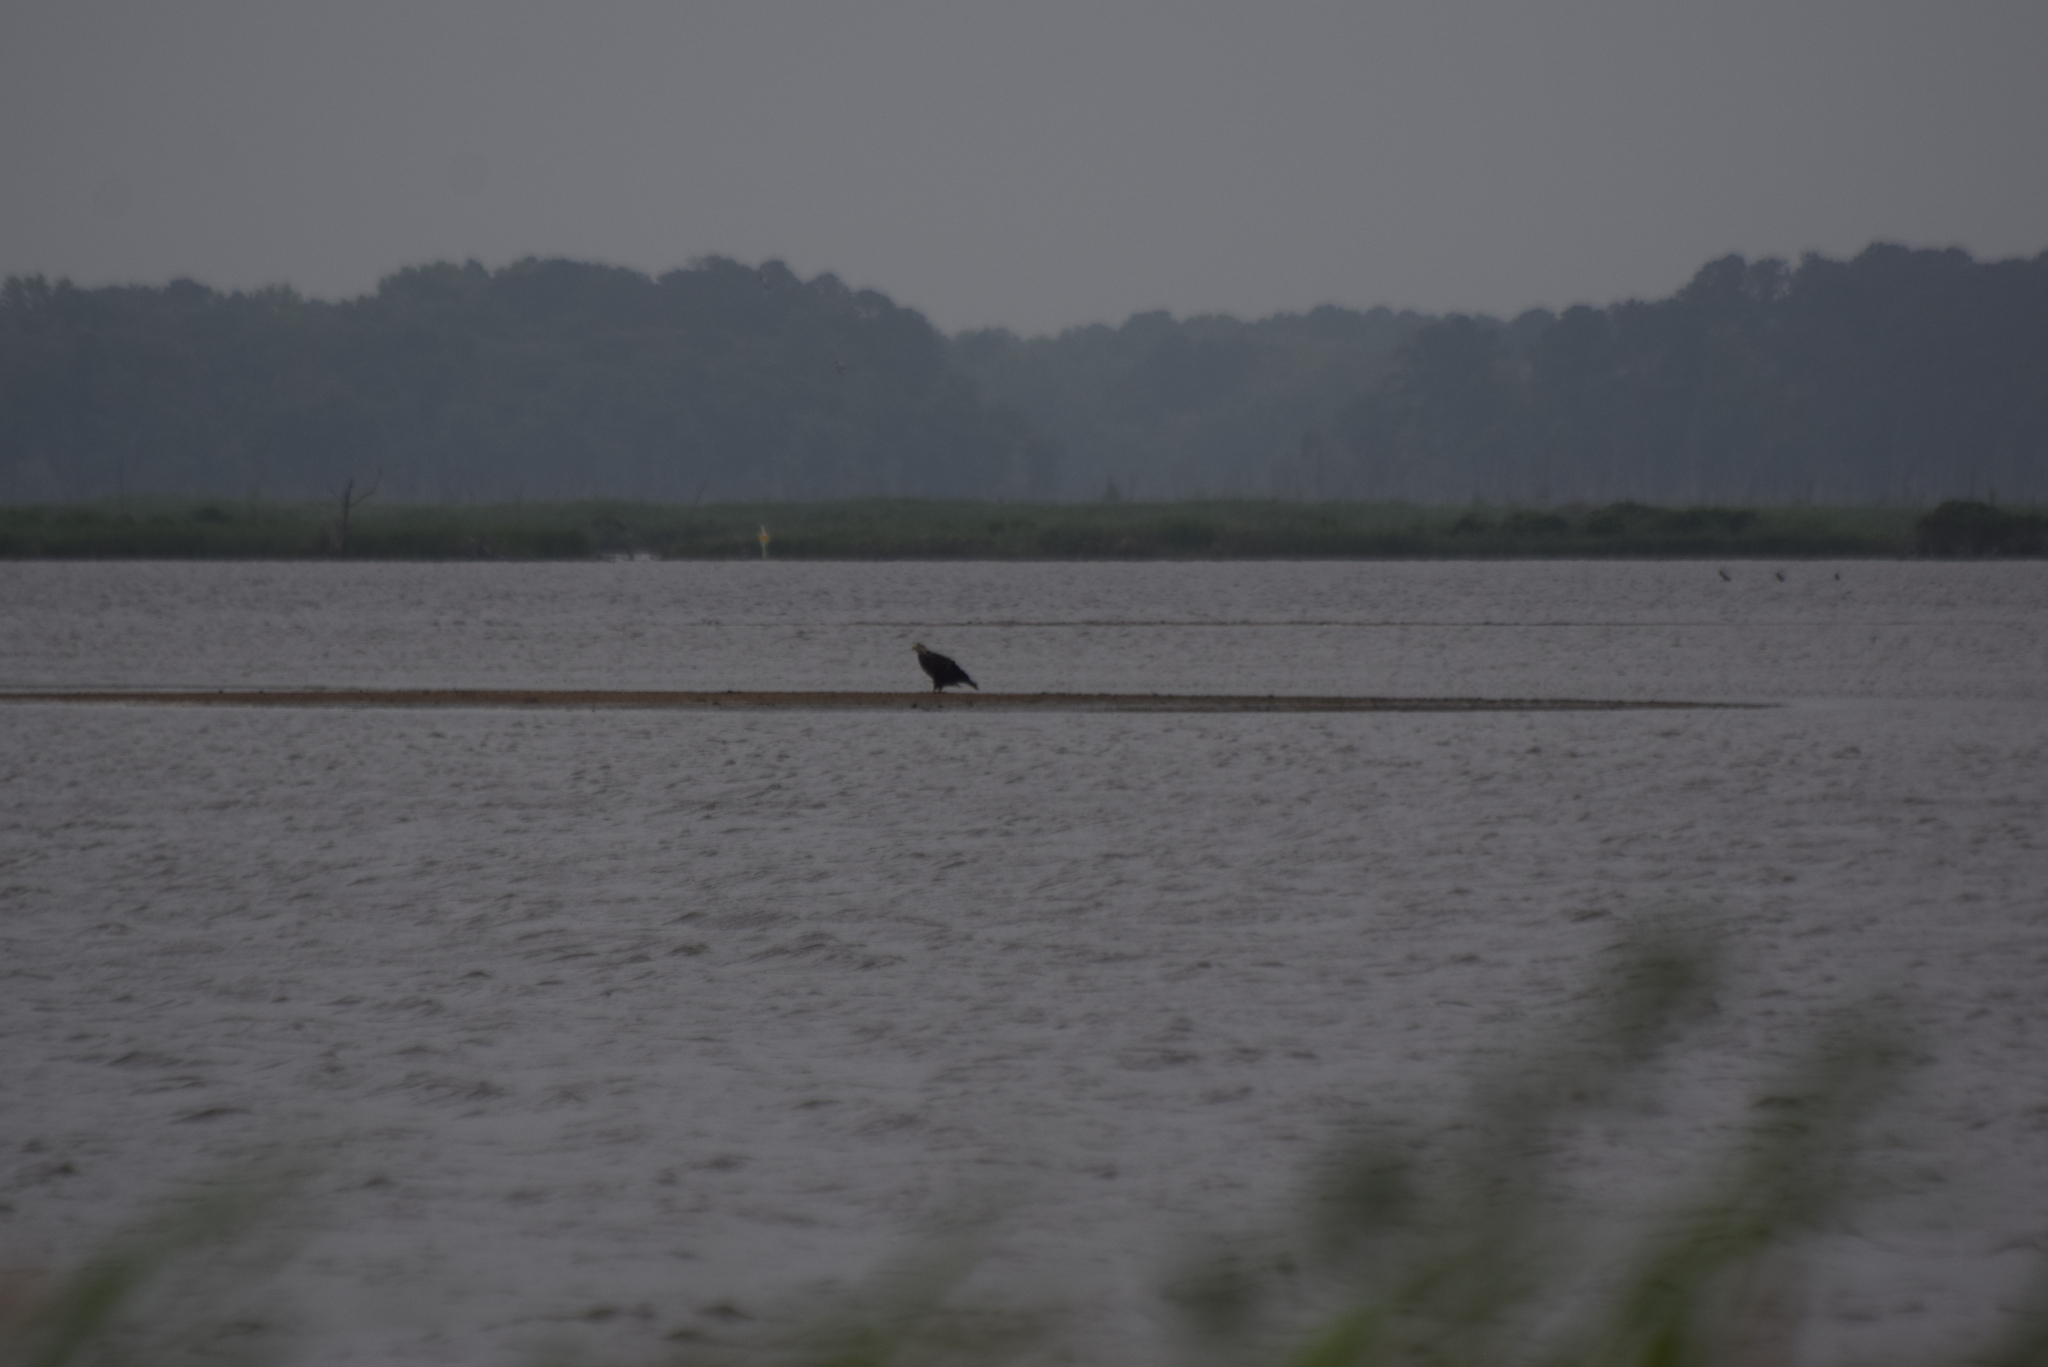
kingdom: Animalia
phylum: Chordata
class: Aves
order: Accipitriformes
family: Accipitridae
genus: Haliaeetus
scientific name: Haliaeetus leucocephalus
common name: Bald eagle
